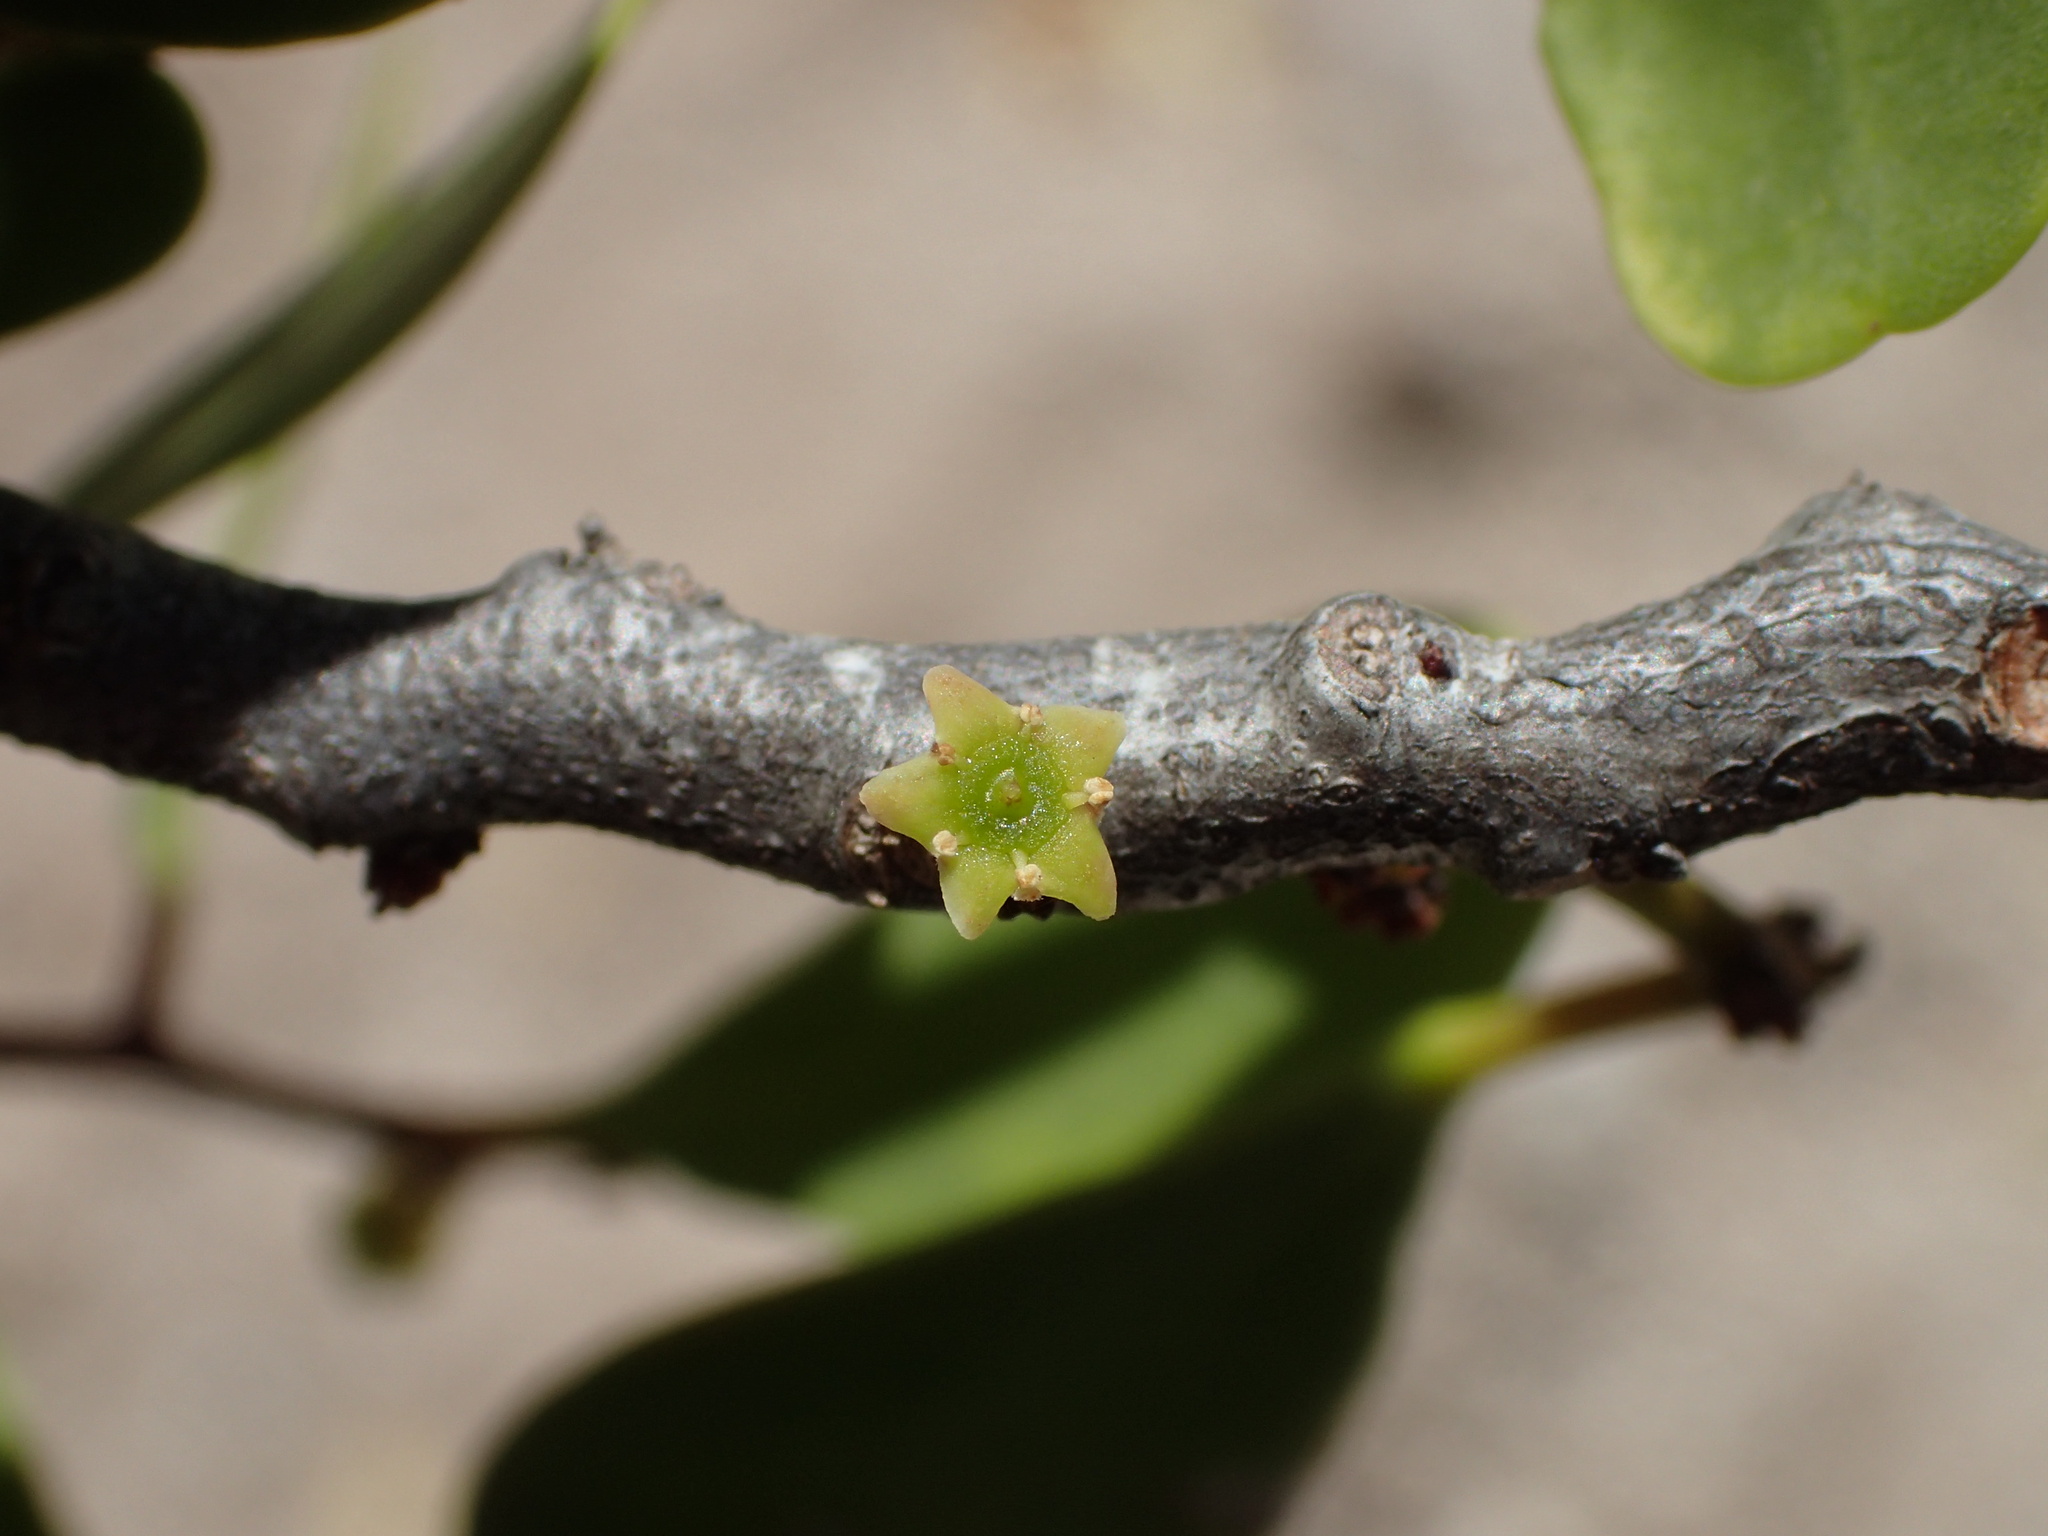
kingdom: Plantae
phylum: Tracheophyta
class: Magnoliopsida
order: Celastrales
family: Celastraceae
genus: Tricerma
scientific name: Tricerma phyllanthoides
